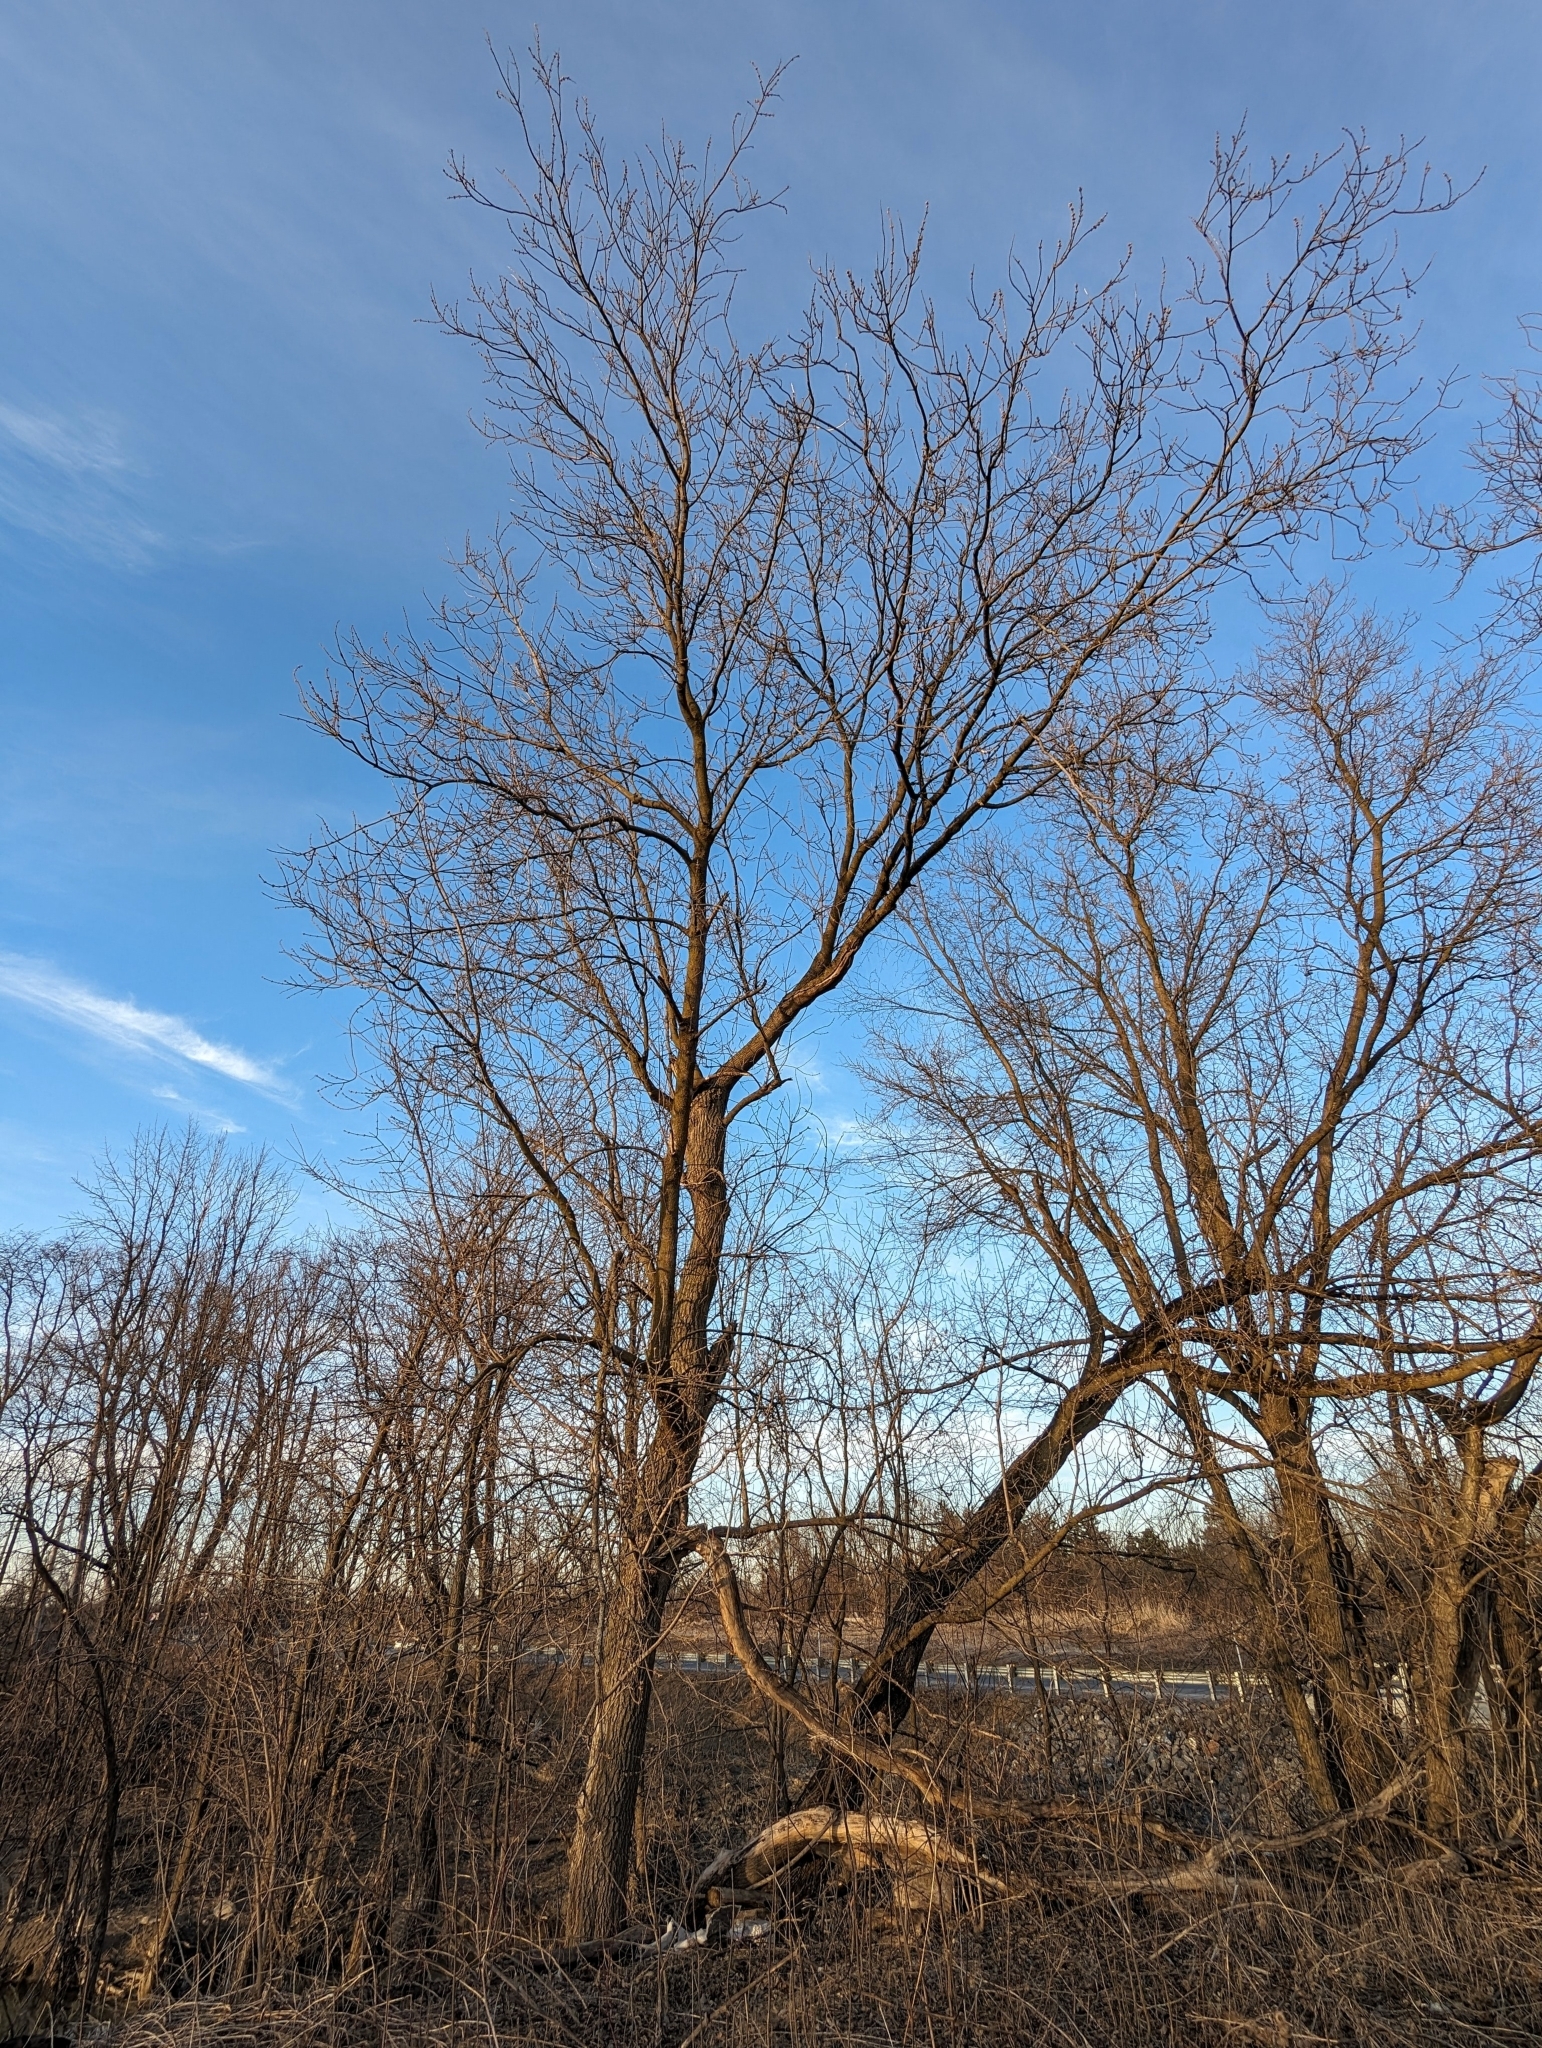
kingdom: Plantae
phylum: Tracheophyta
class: Magnoliopsida
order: Sapindales
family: Sapindaceae
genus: Acer
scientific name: Acer negundo
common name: Ashleaf maple
